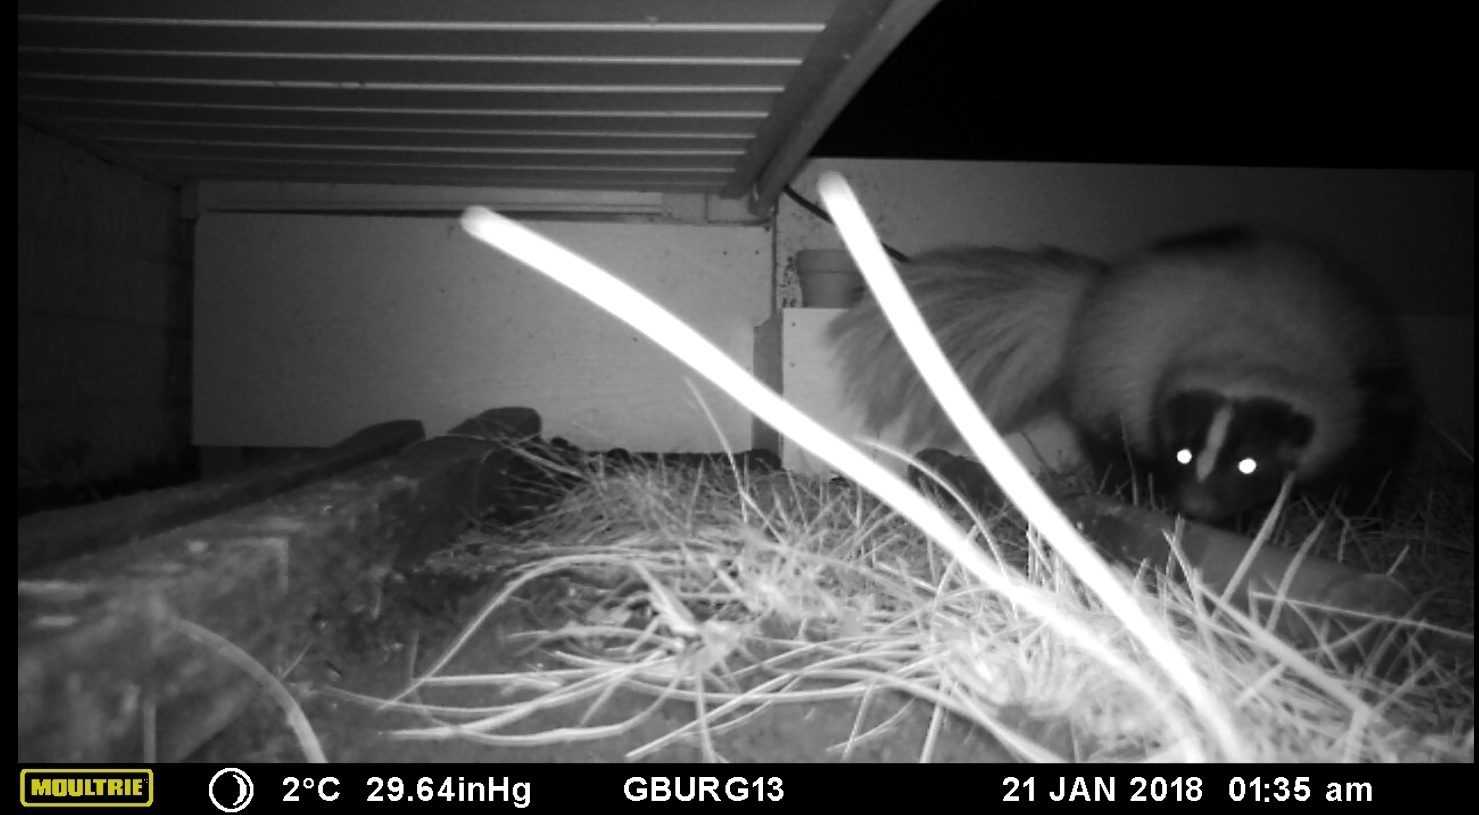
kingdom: Animalia
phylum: Chordata
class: Mammalia
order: Carnivora
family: Mephitidae
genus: Mephitis
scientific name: Mephitis mephitis
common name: Striped skunk
